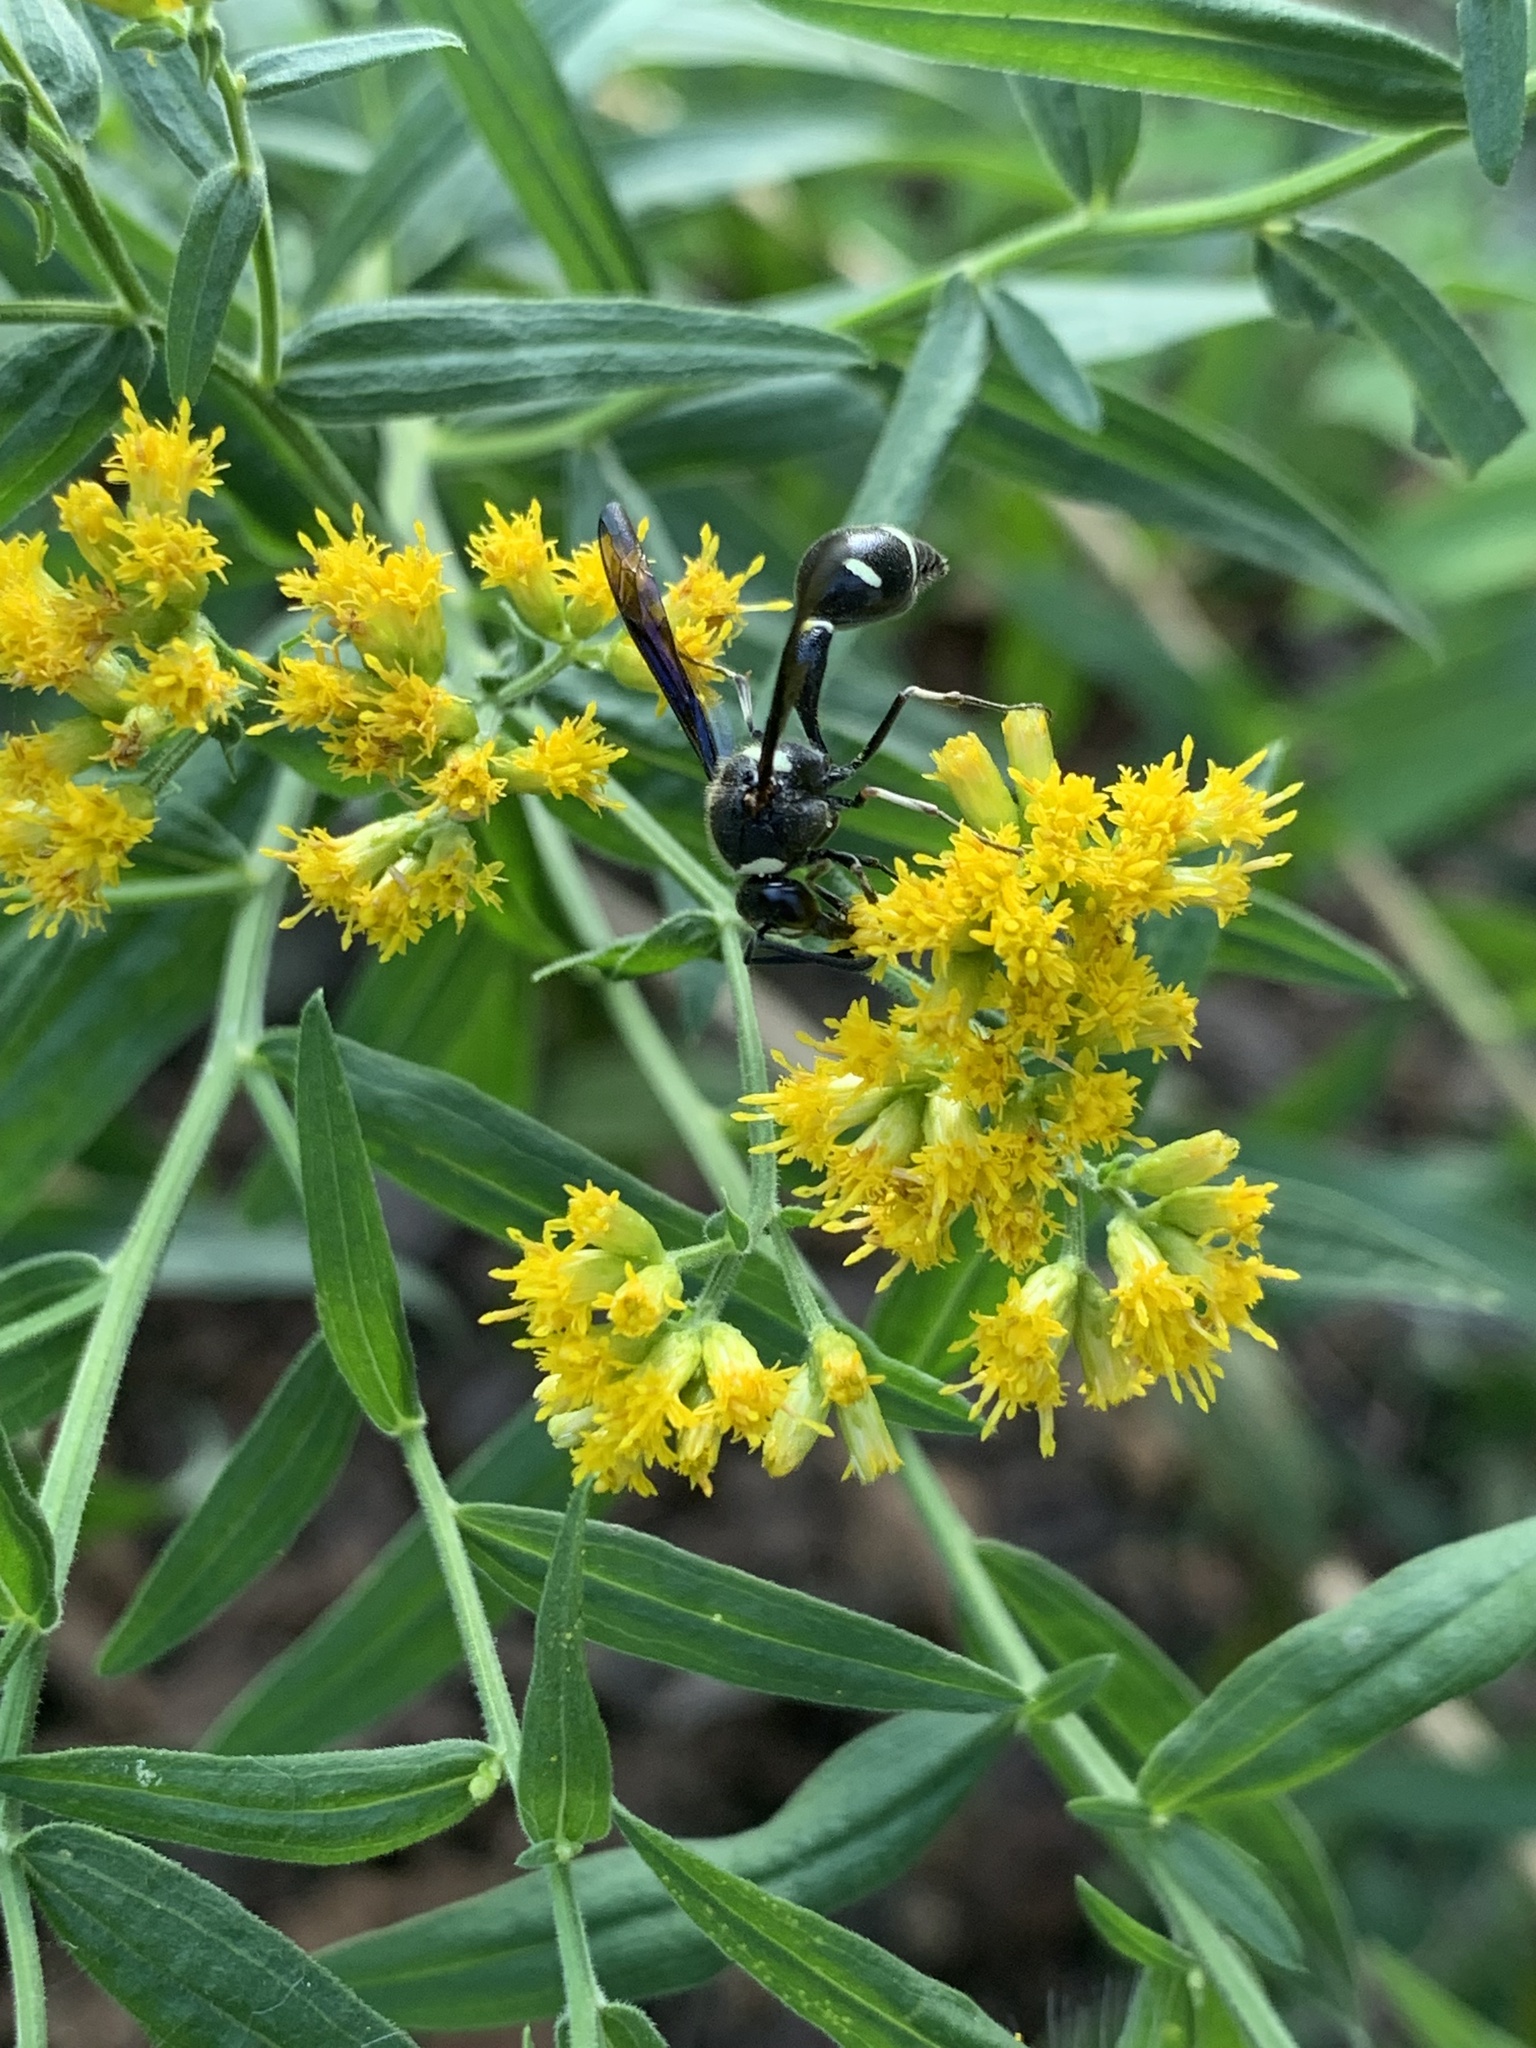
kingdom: Animalia
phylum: Arthropoda
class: Insecta
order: Hymenoptera
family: Vespidae
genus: Eumenes
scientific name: Eumenes fraternus
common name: Fraternal potter wasp
